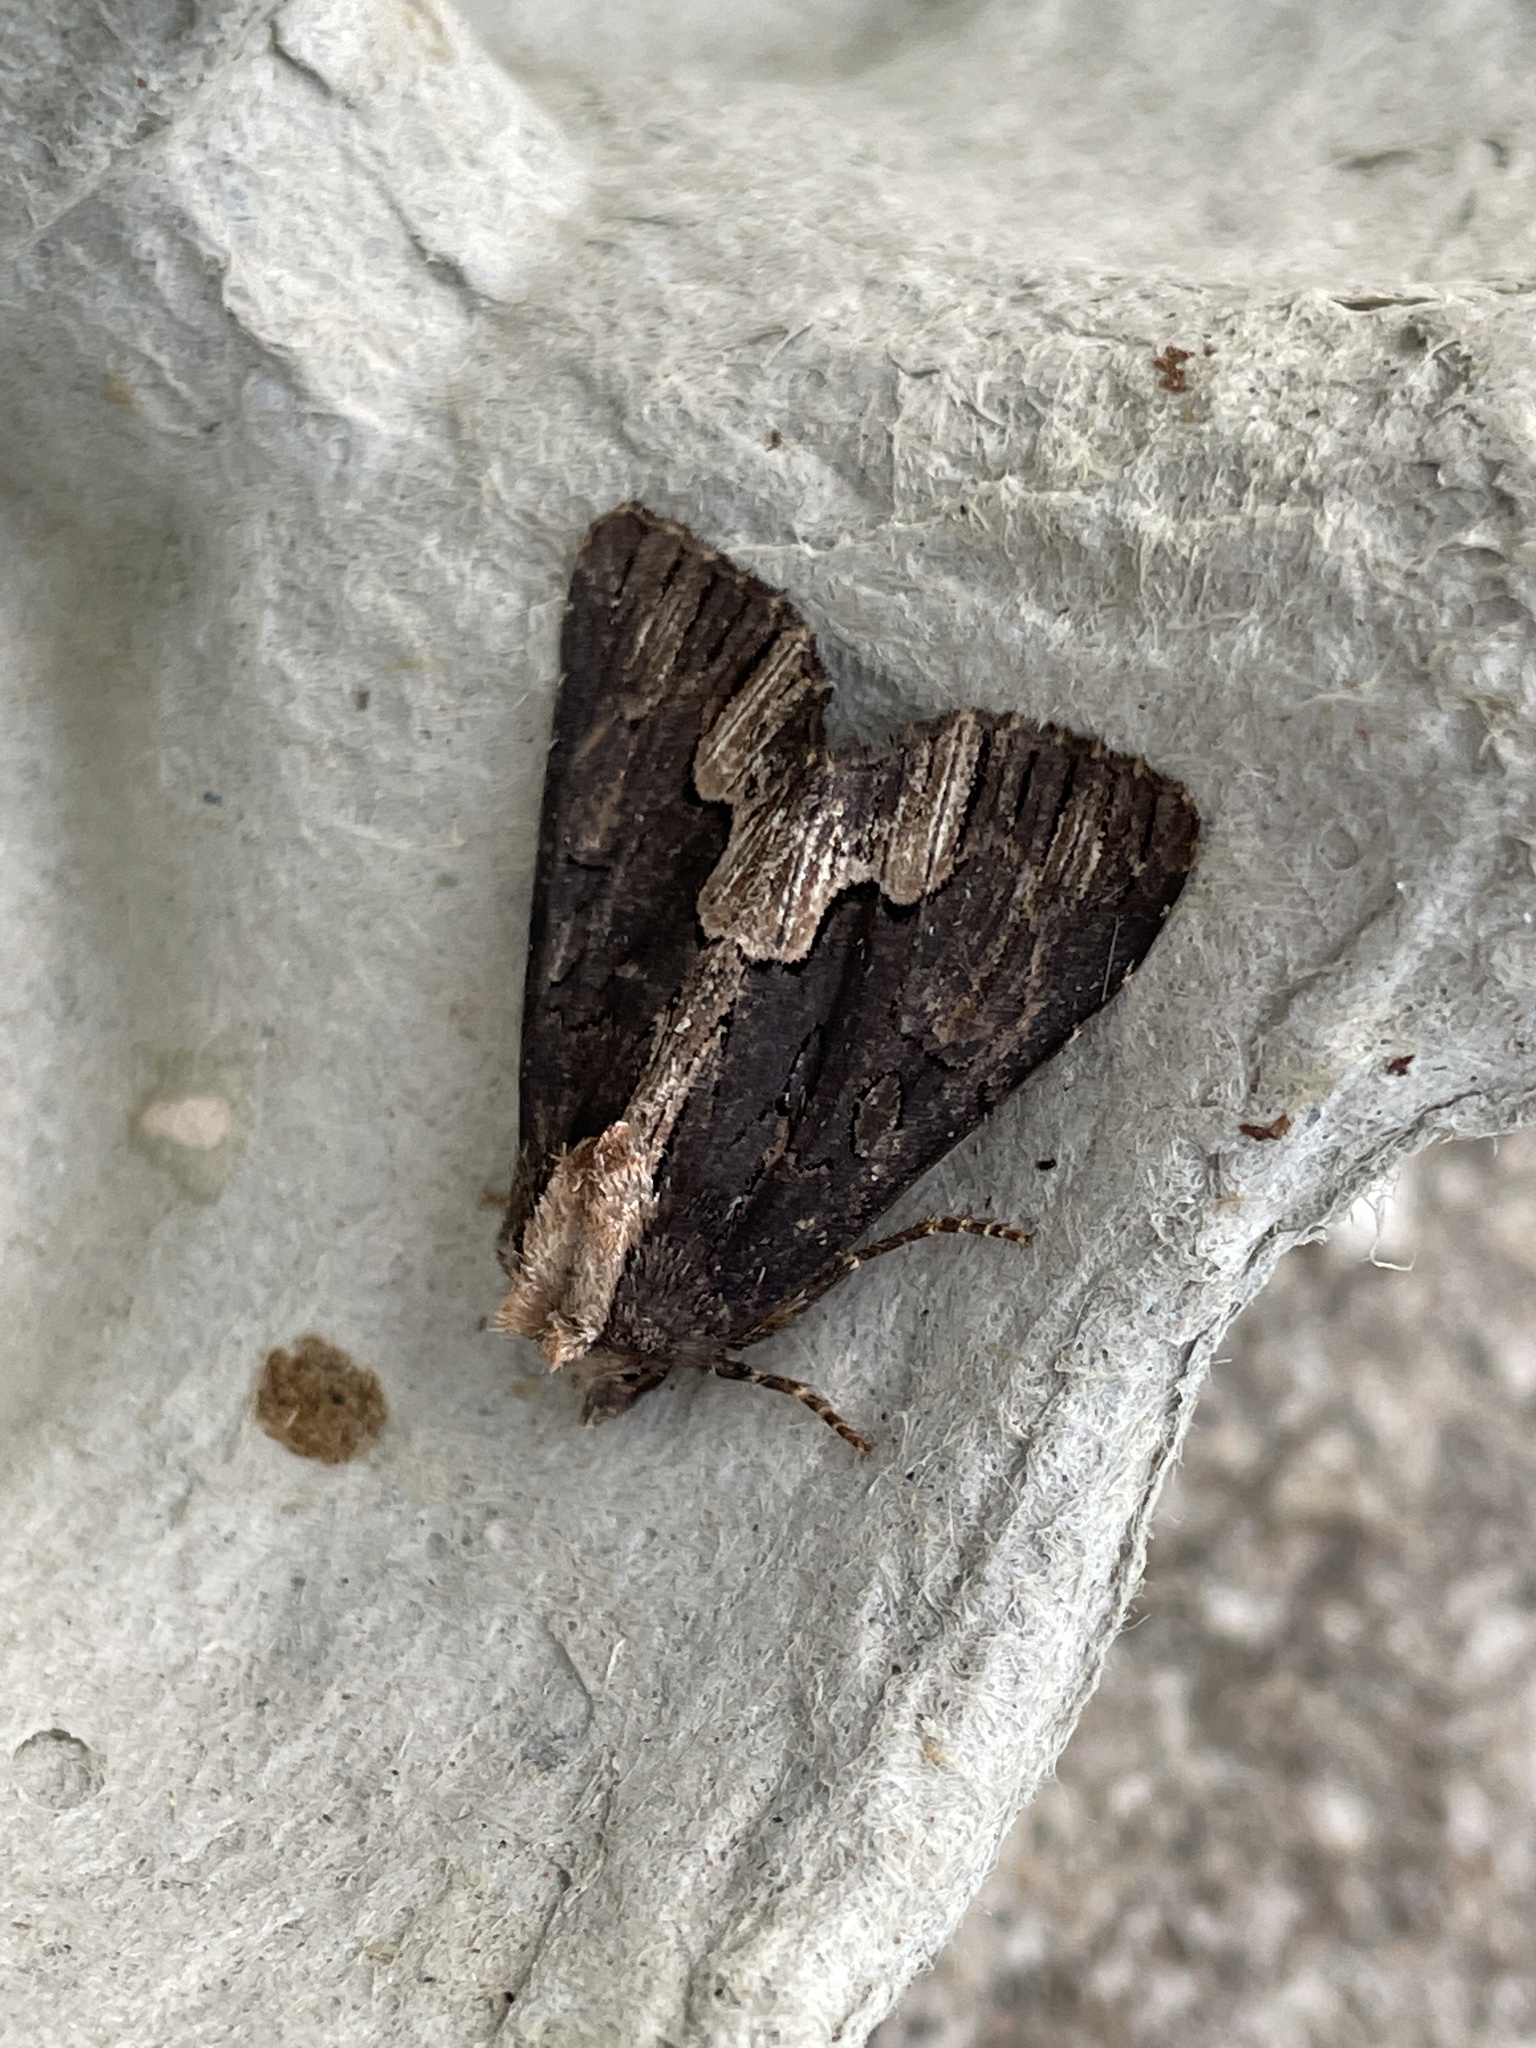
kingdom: Animalia
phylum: Arthropoda
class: Insecta
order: Lepidoptera
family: Noctuidae
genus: Dypterygia
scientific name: Dypterygia scabriuscula
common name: Bird's wing
